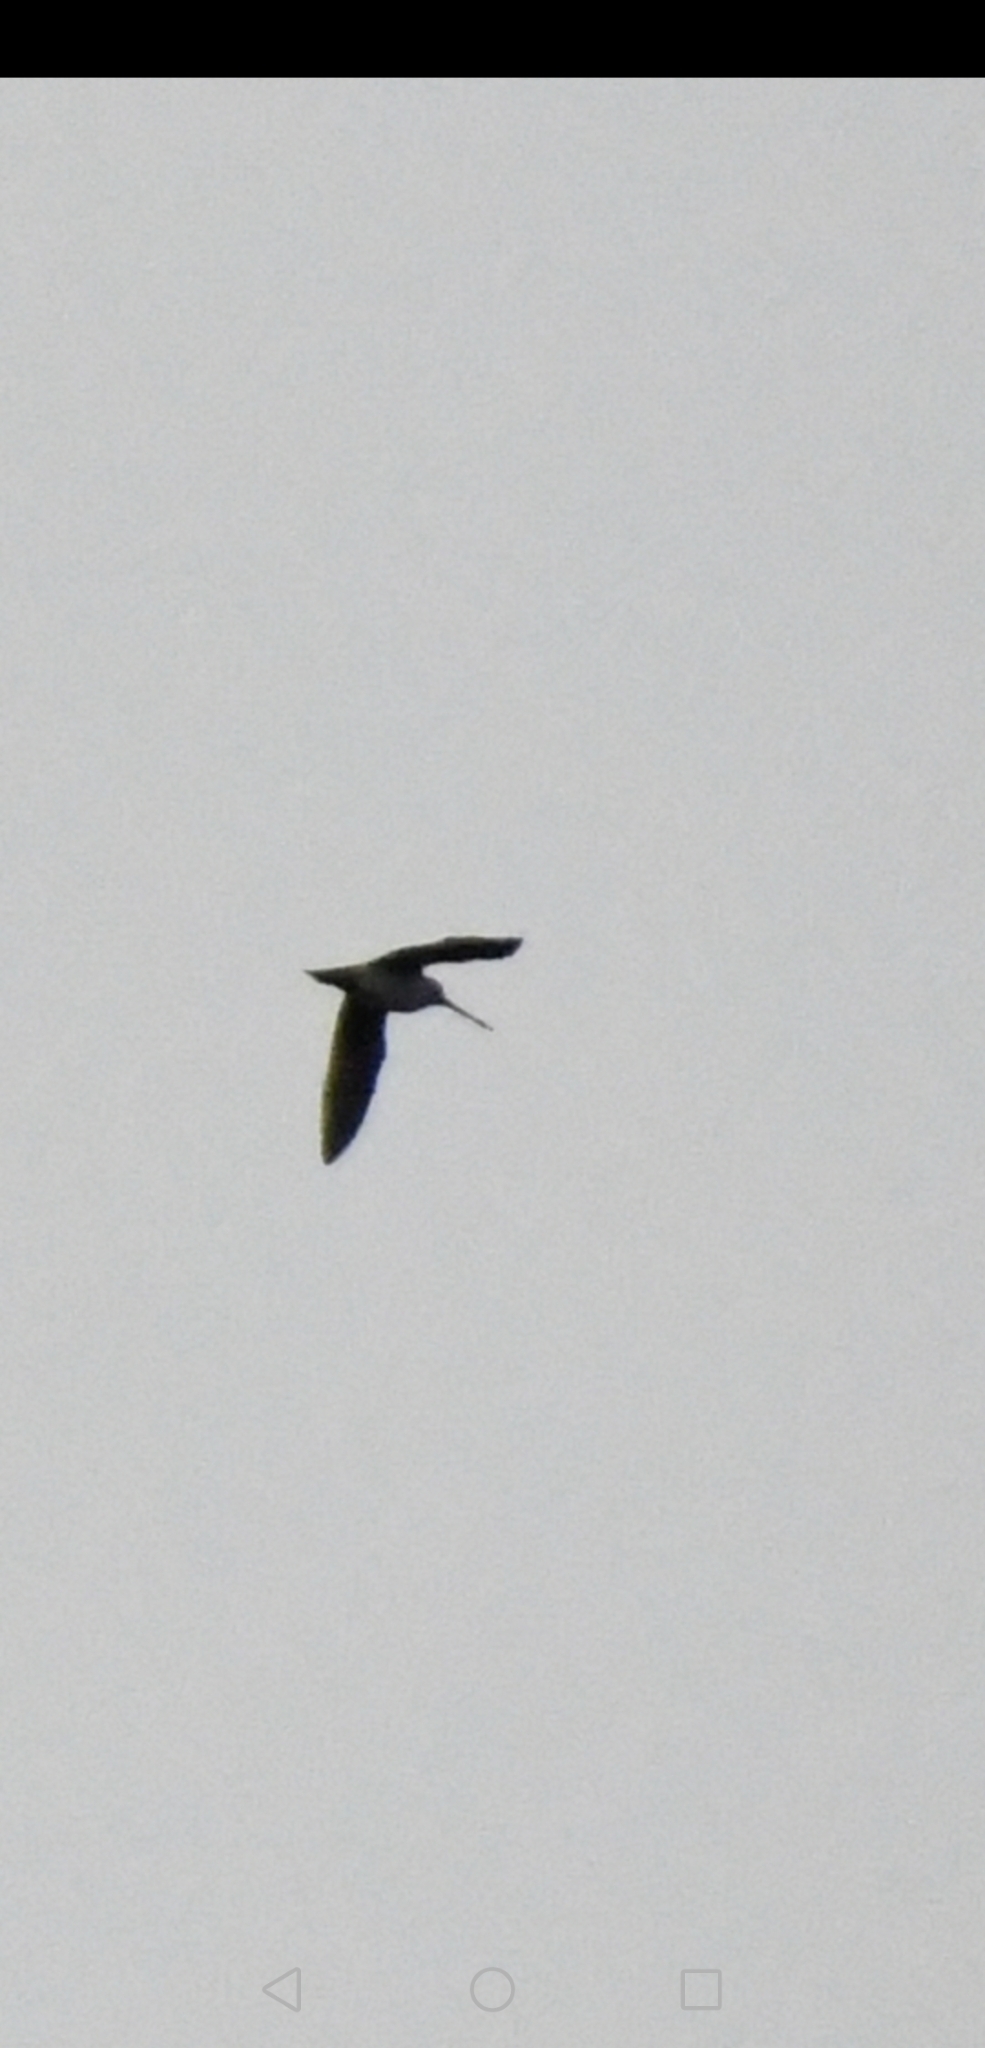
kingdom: Animalia
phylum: Chordata
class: Aves
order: Charadriiformes
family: Scolopacidae
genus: Gallinago
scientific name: Gallinago delicata
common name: Wilson's snipe
